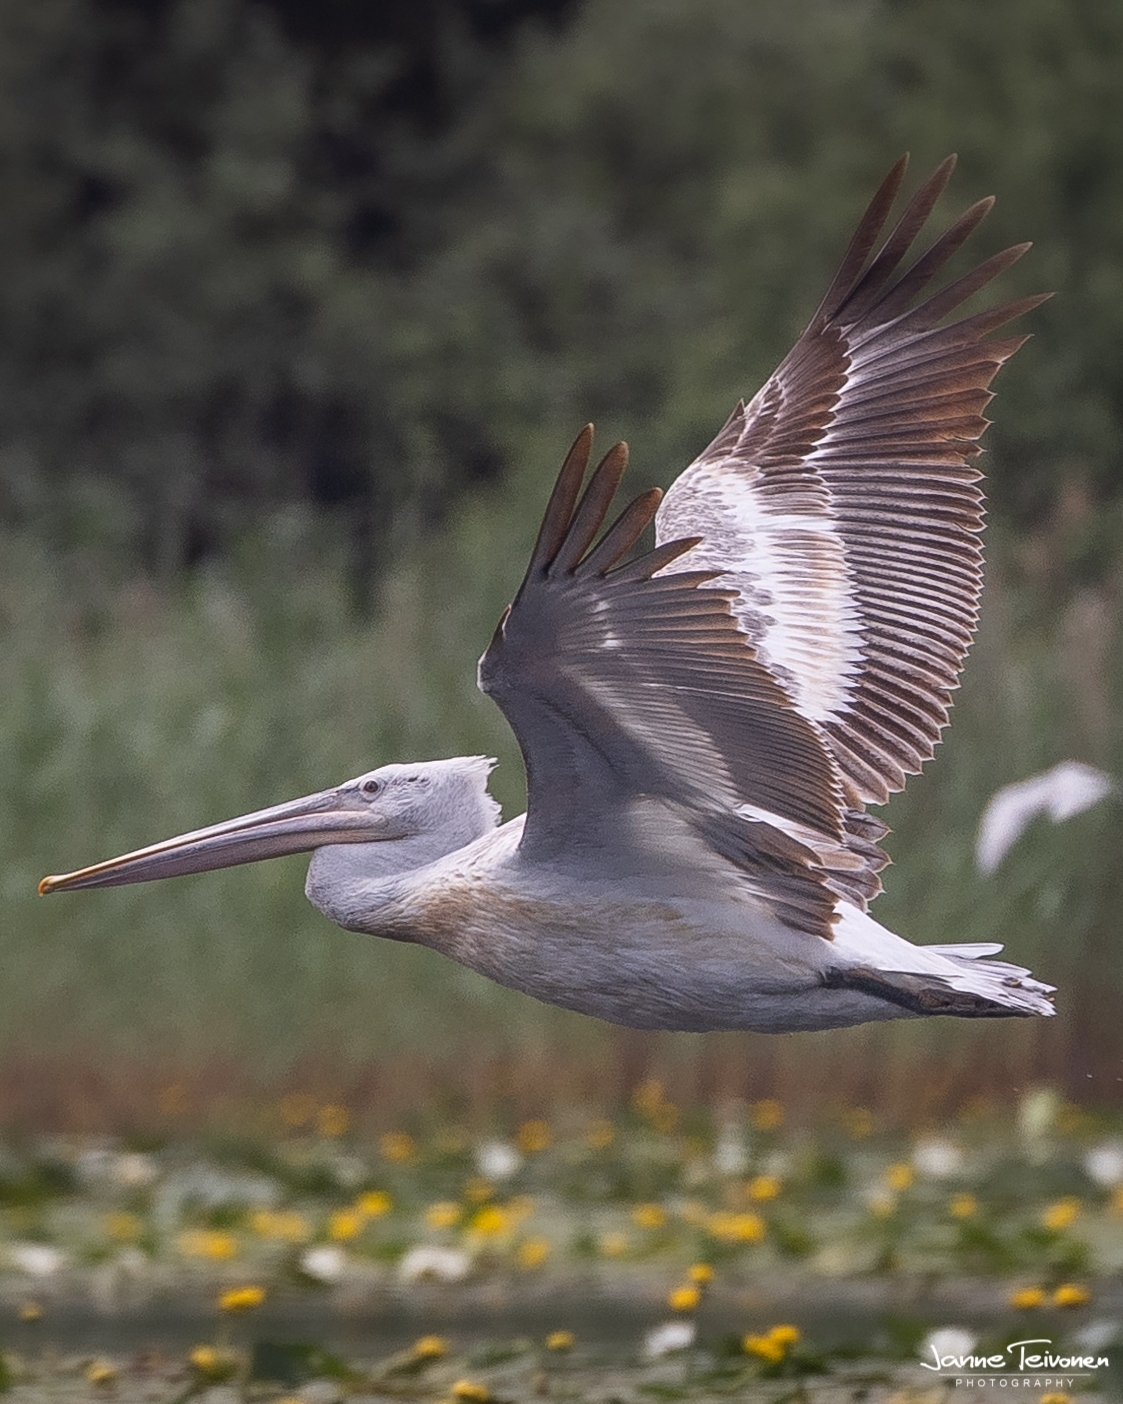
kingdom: Animalia
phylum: Chordata
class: Aves
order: Pelecaniformes
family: Pelecanidae
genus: Pelecanus
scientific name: Pelecanus crispus
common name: Dalmatian pelican
